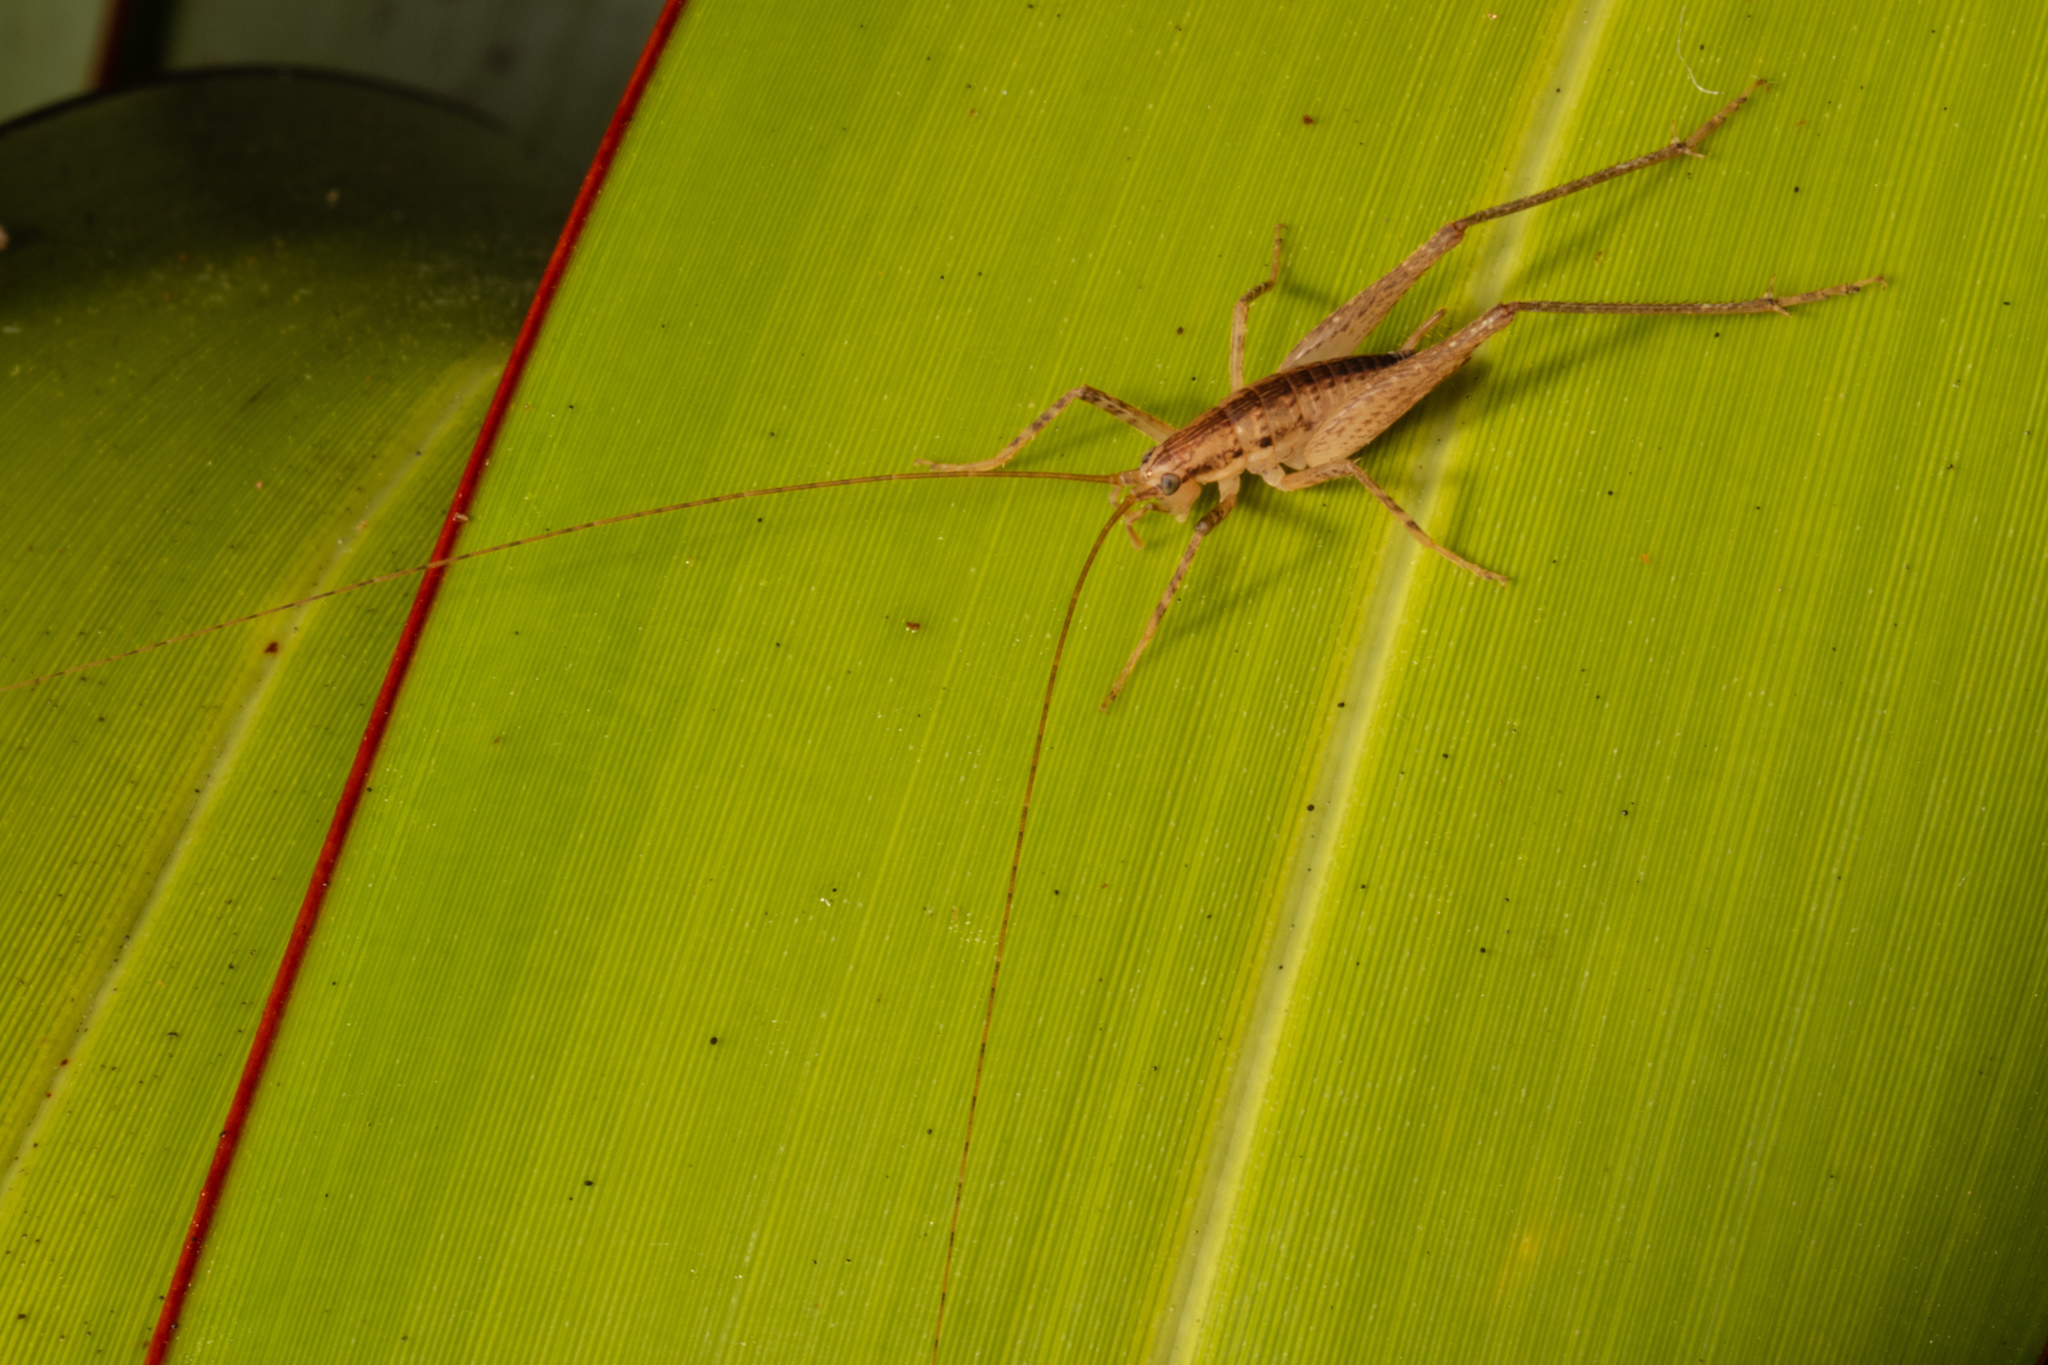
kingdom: Animalia
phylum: Arthropoda
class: Insecta
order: Orthoptera
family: Rhaphidophoridae
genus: Talitropsis
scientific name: Talitropsis poduroides
